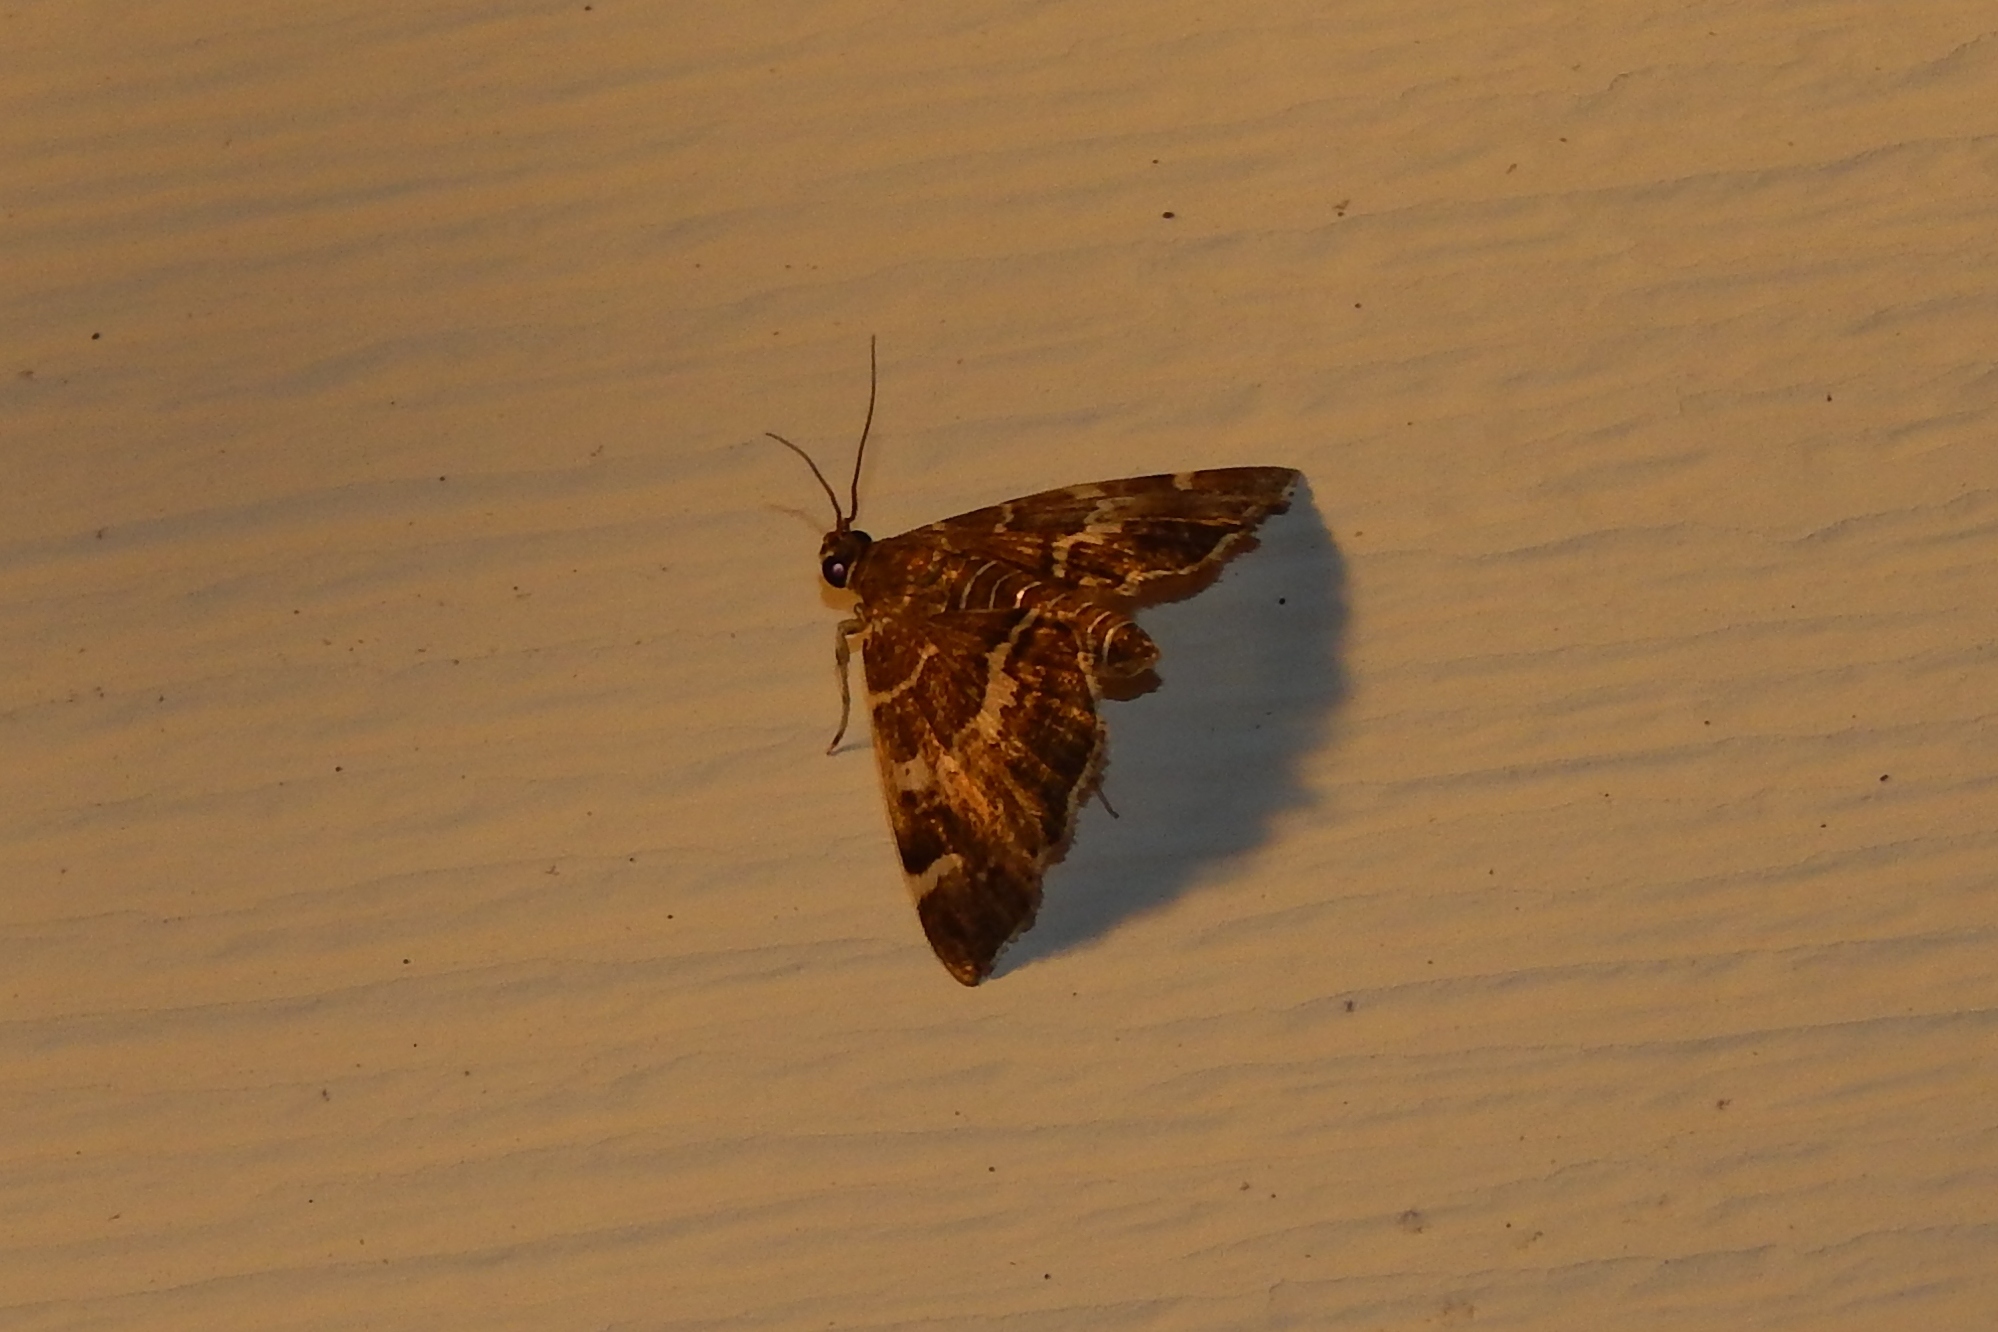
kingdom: Animalia
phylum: Arthropoda
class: Insecta
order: Lepidoptera
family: Crambidae
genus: Hymenia
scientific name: Hymenia perspectalis
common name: Spotted beet webworm
